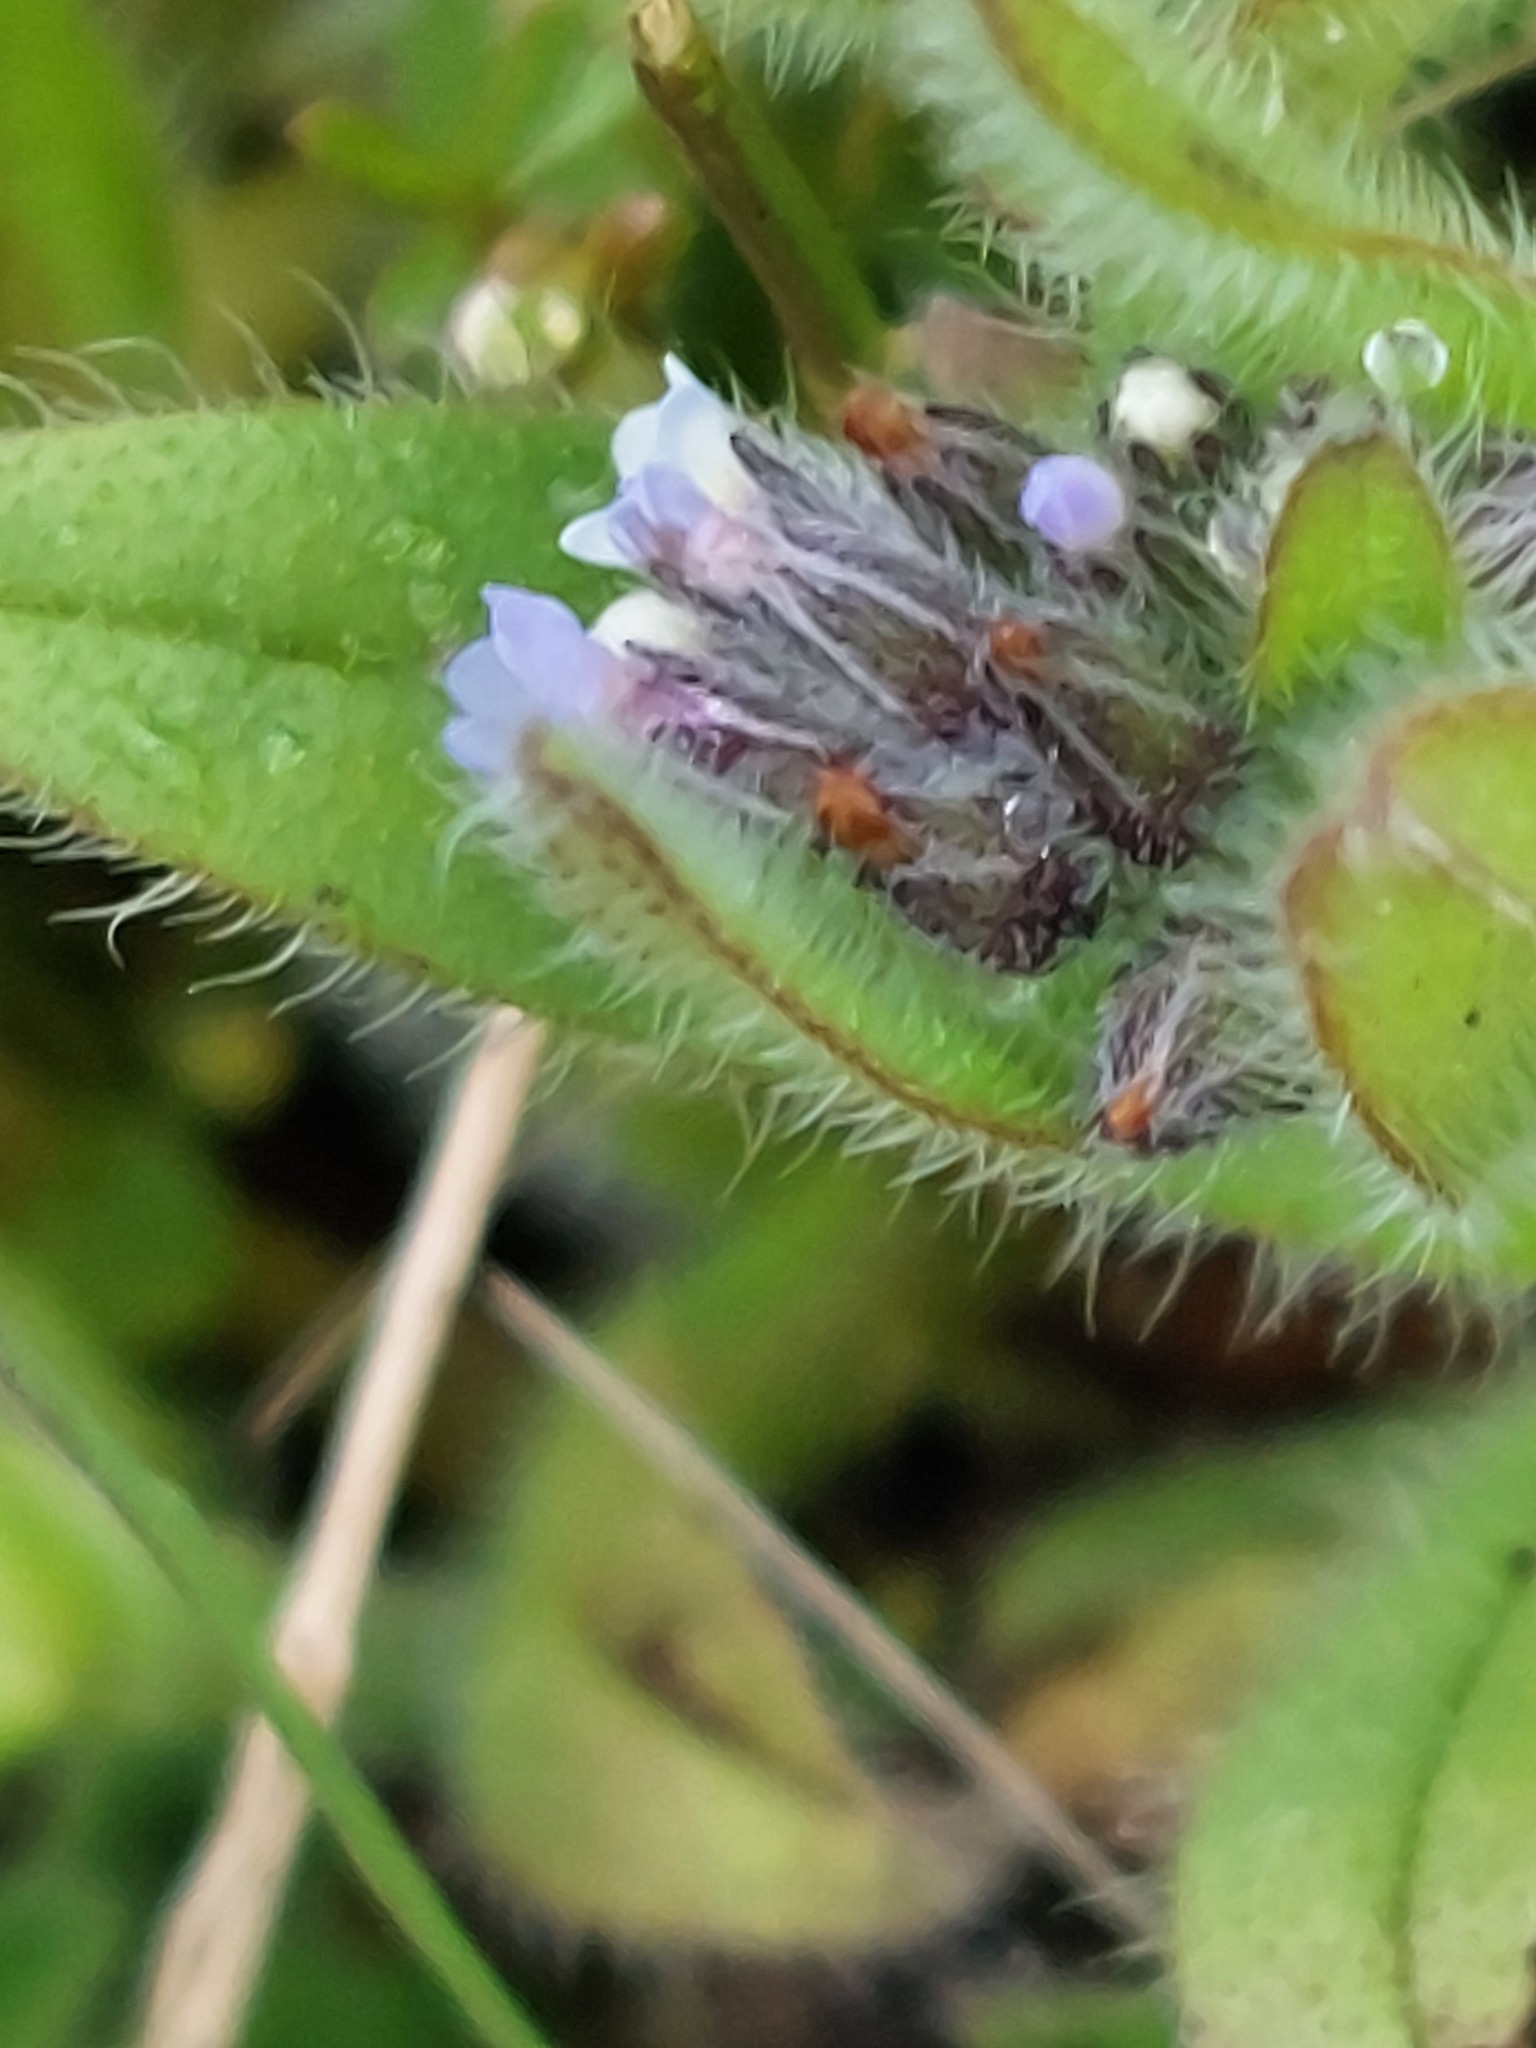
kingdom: Plantae
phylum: Tracheophyta
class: Magnoliopsida
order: Boraginales
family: Boraginaceae
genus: Myosotis
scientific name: Myosotis discolor
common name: Changing forget-me-not
